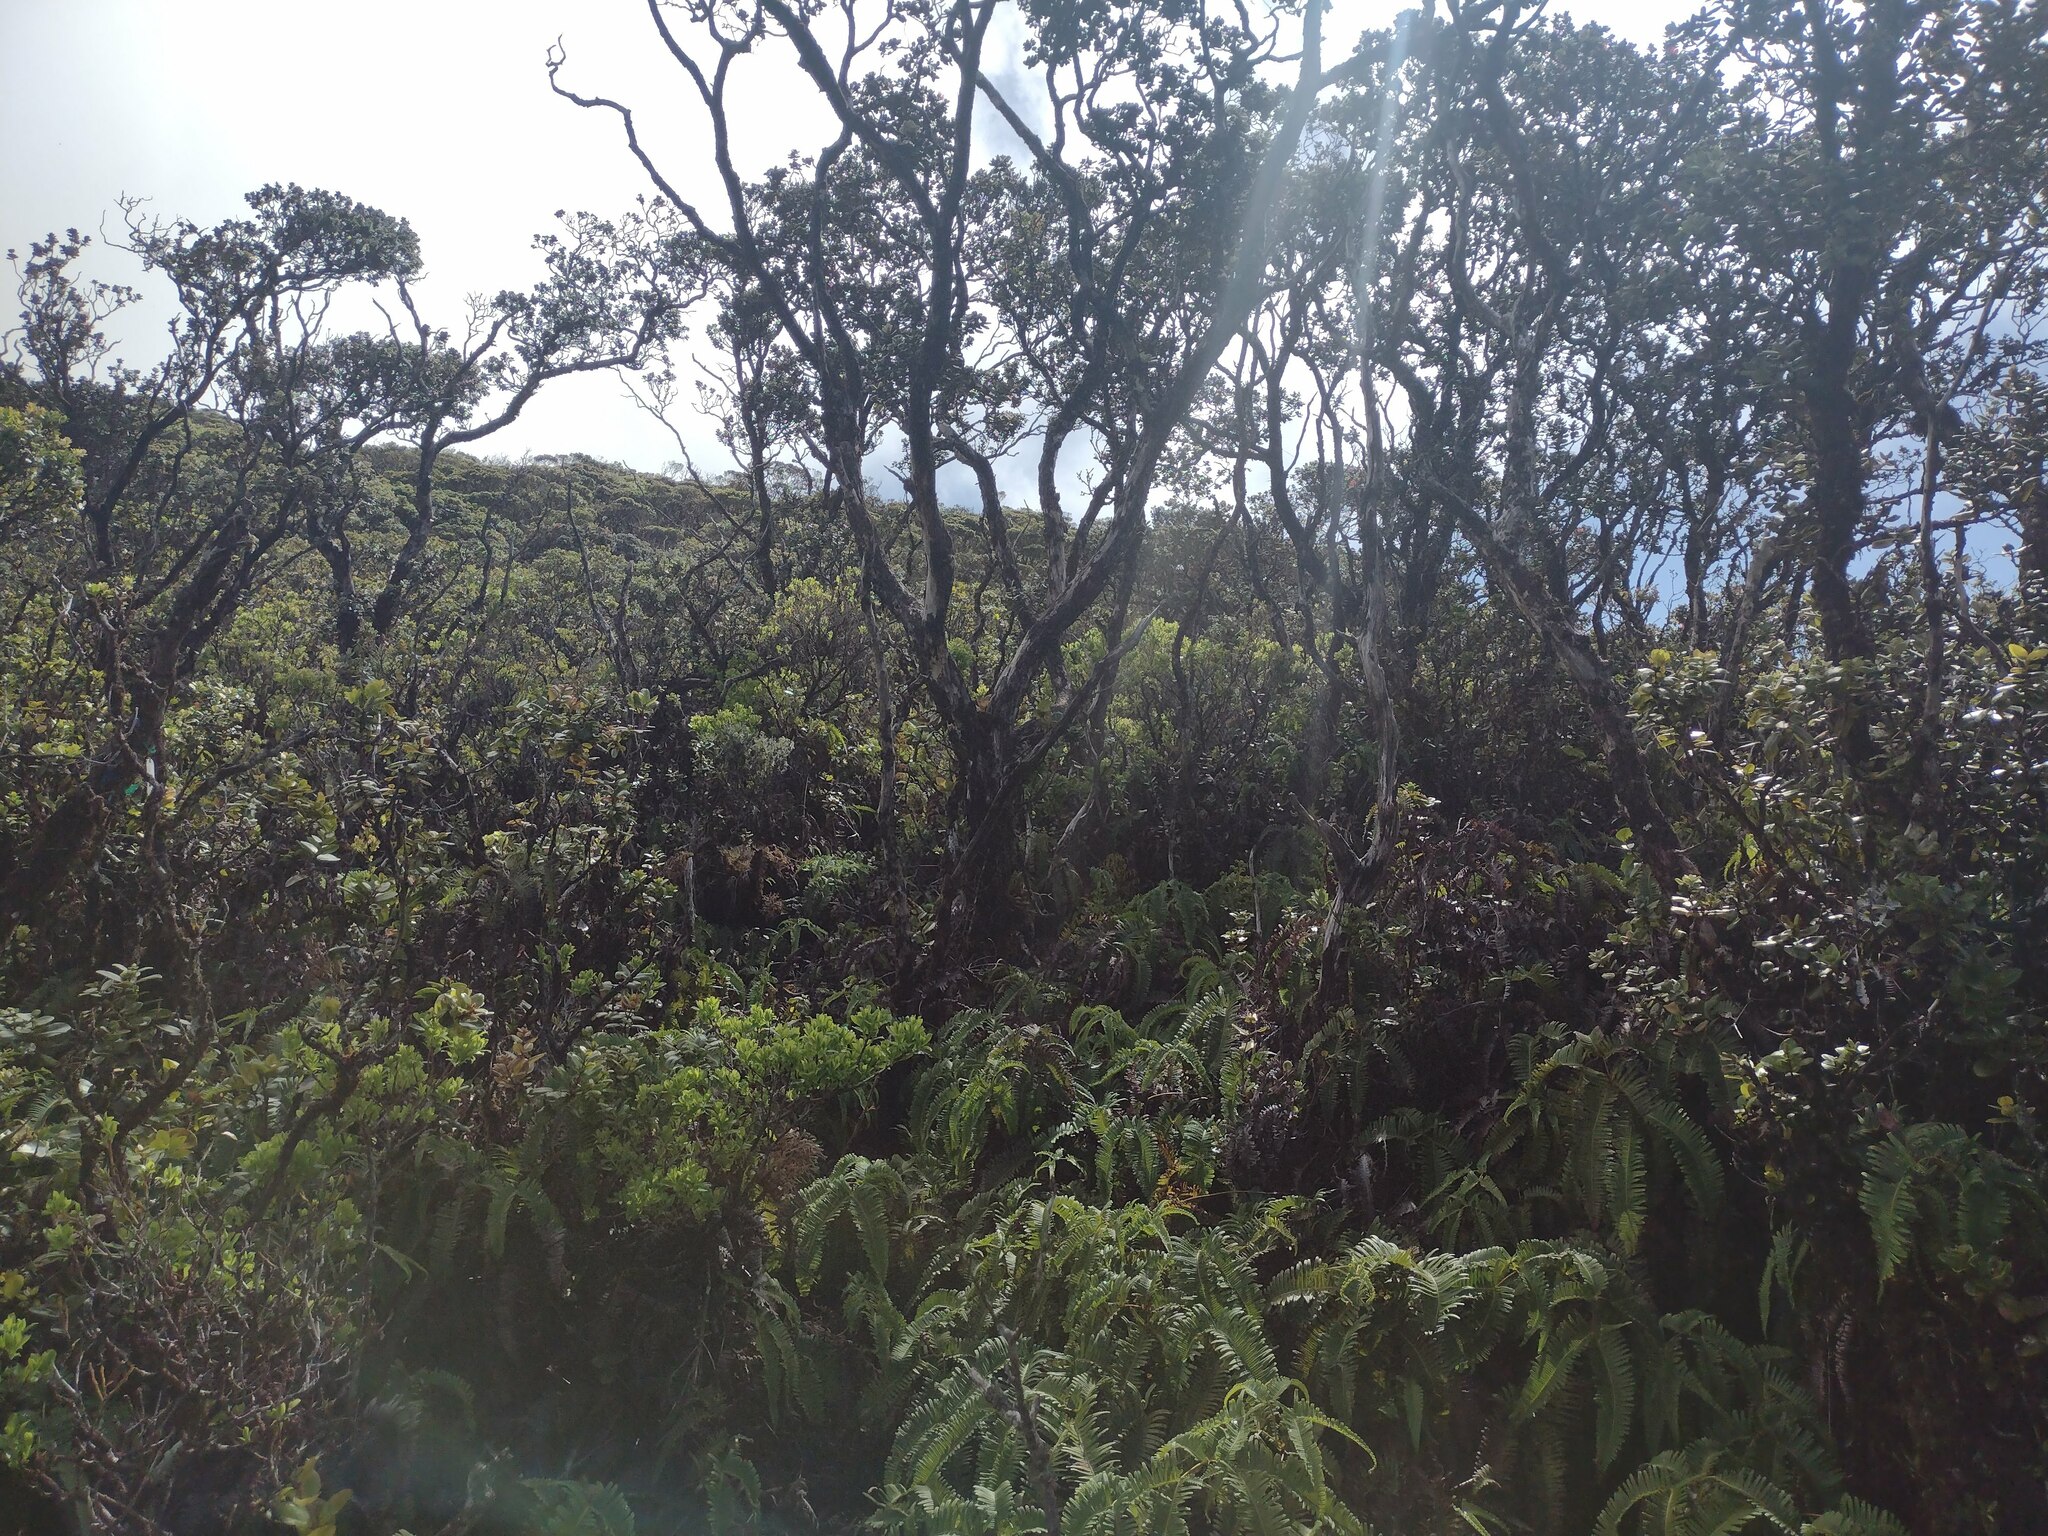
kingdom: Plantae
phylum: Tracheophyta
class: Polypodiopsida
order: Gleicheniales
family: Gleicheniaceae
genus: Dicranopteris
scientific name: Dicranopteris linearis
